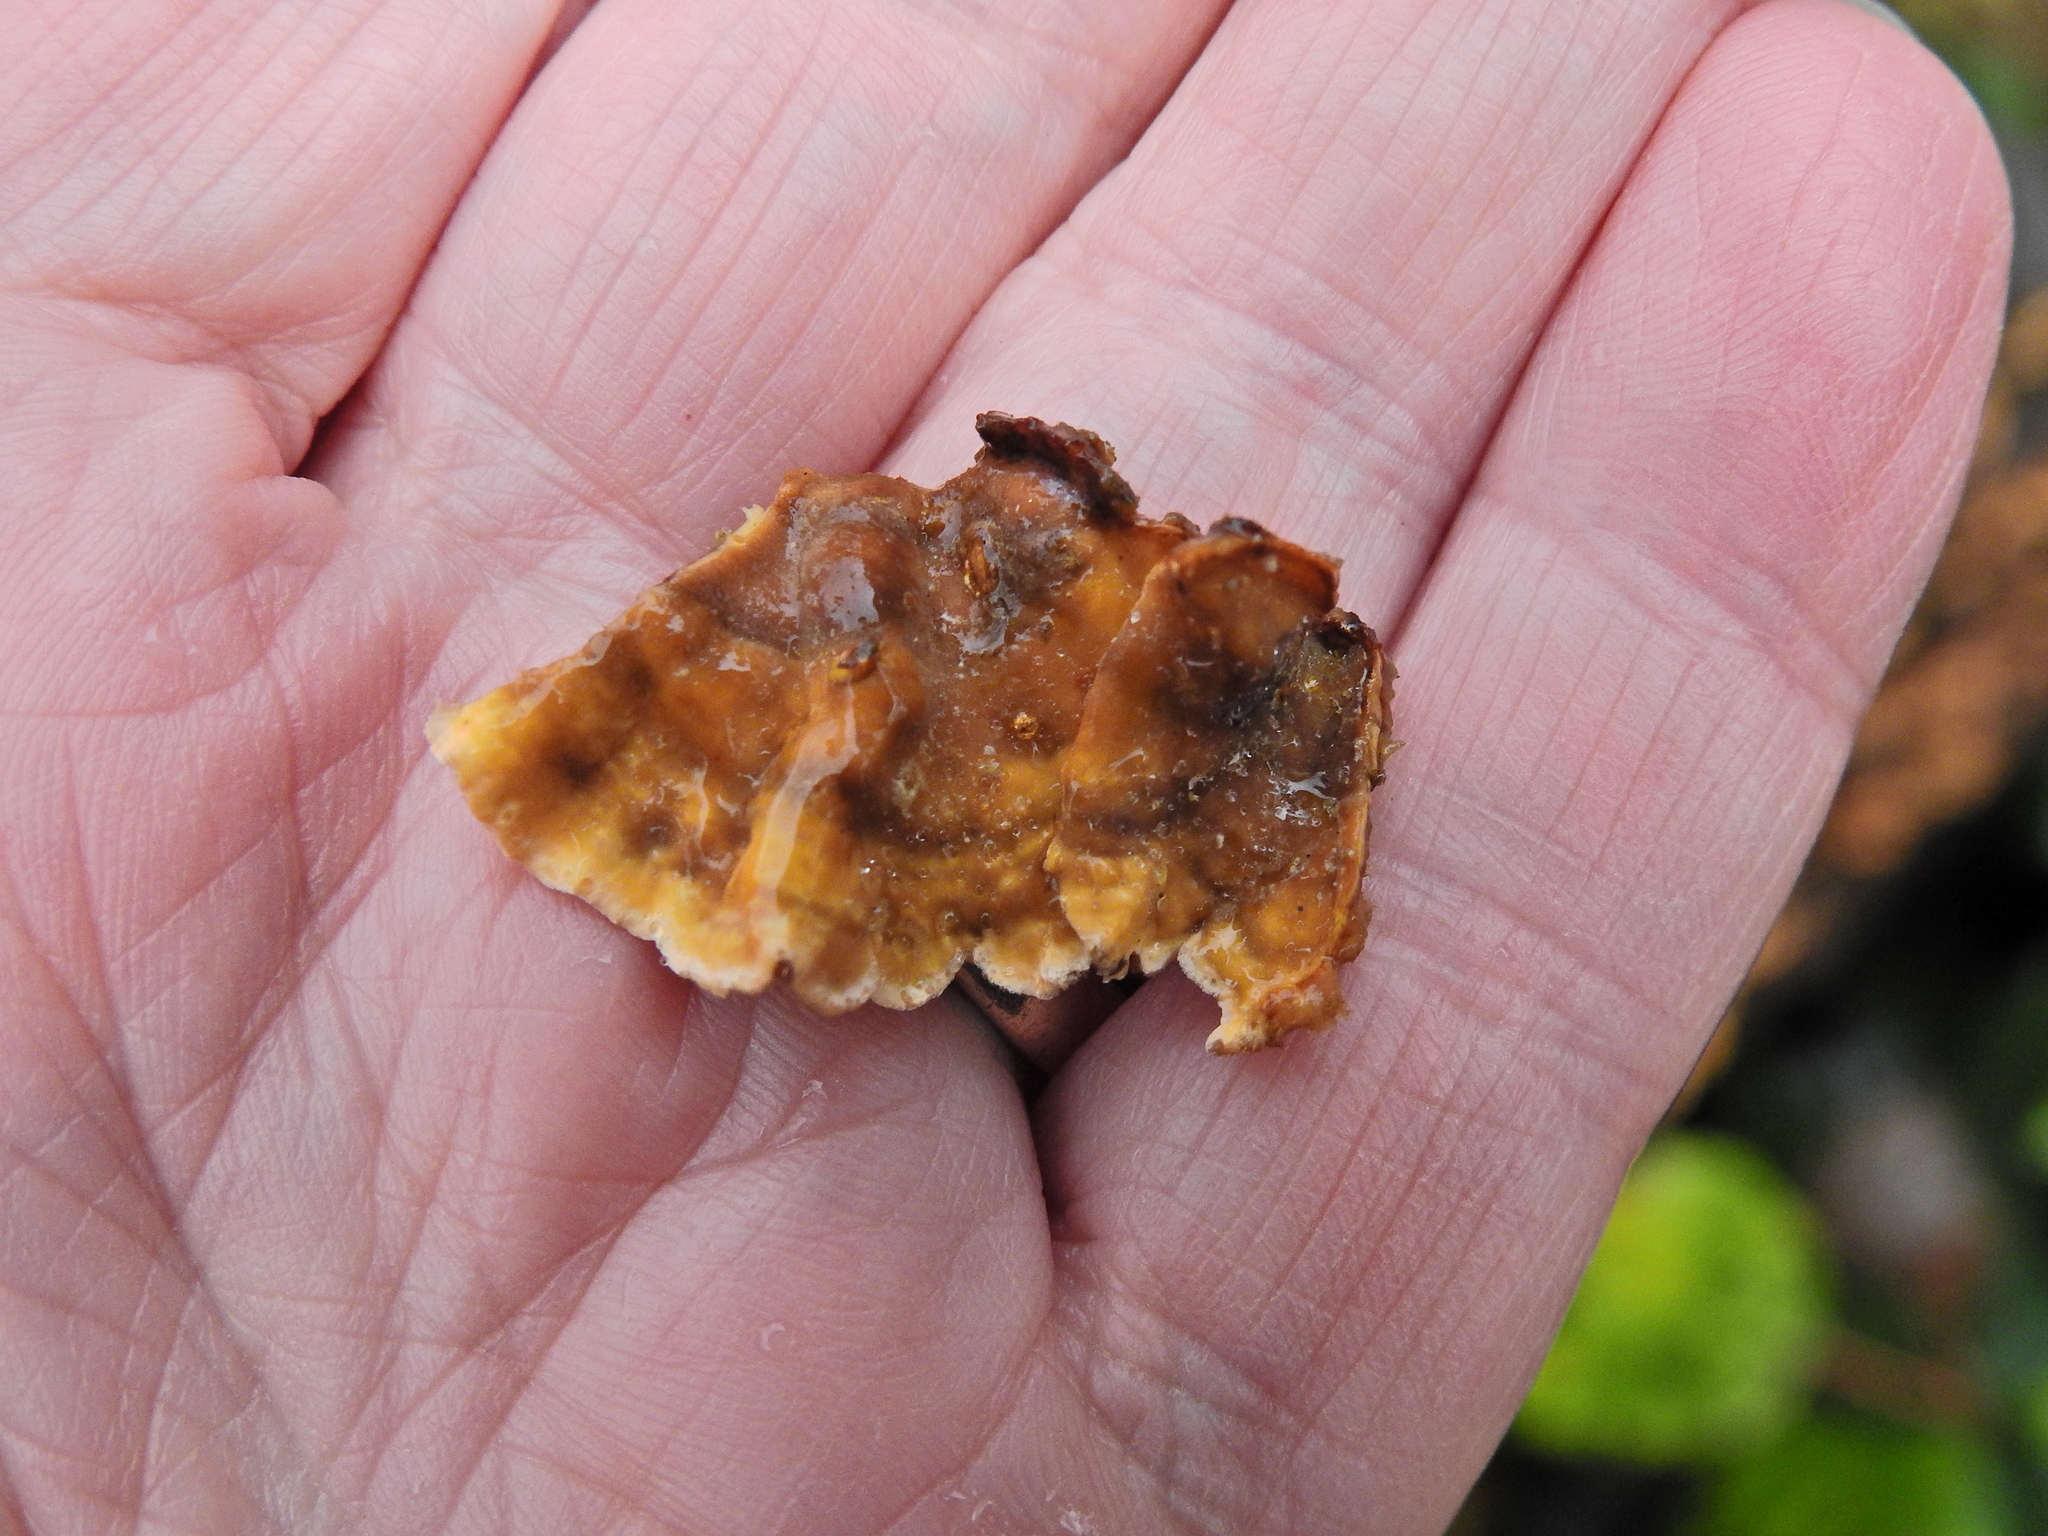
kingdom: Fungi
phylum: Basidiomycota
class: Agaricomycetes
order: Russulales
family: Stereaceae
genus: Stereum
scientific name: Stereum hirsutum
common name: Hairy curtain crust
